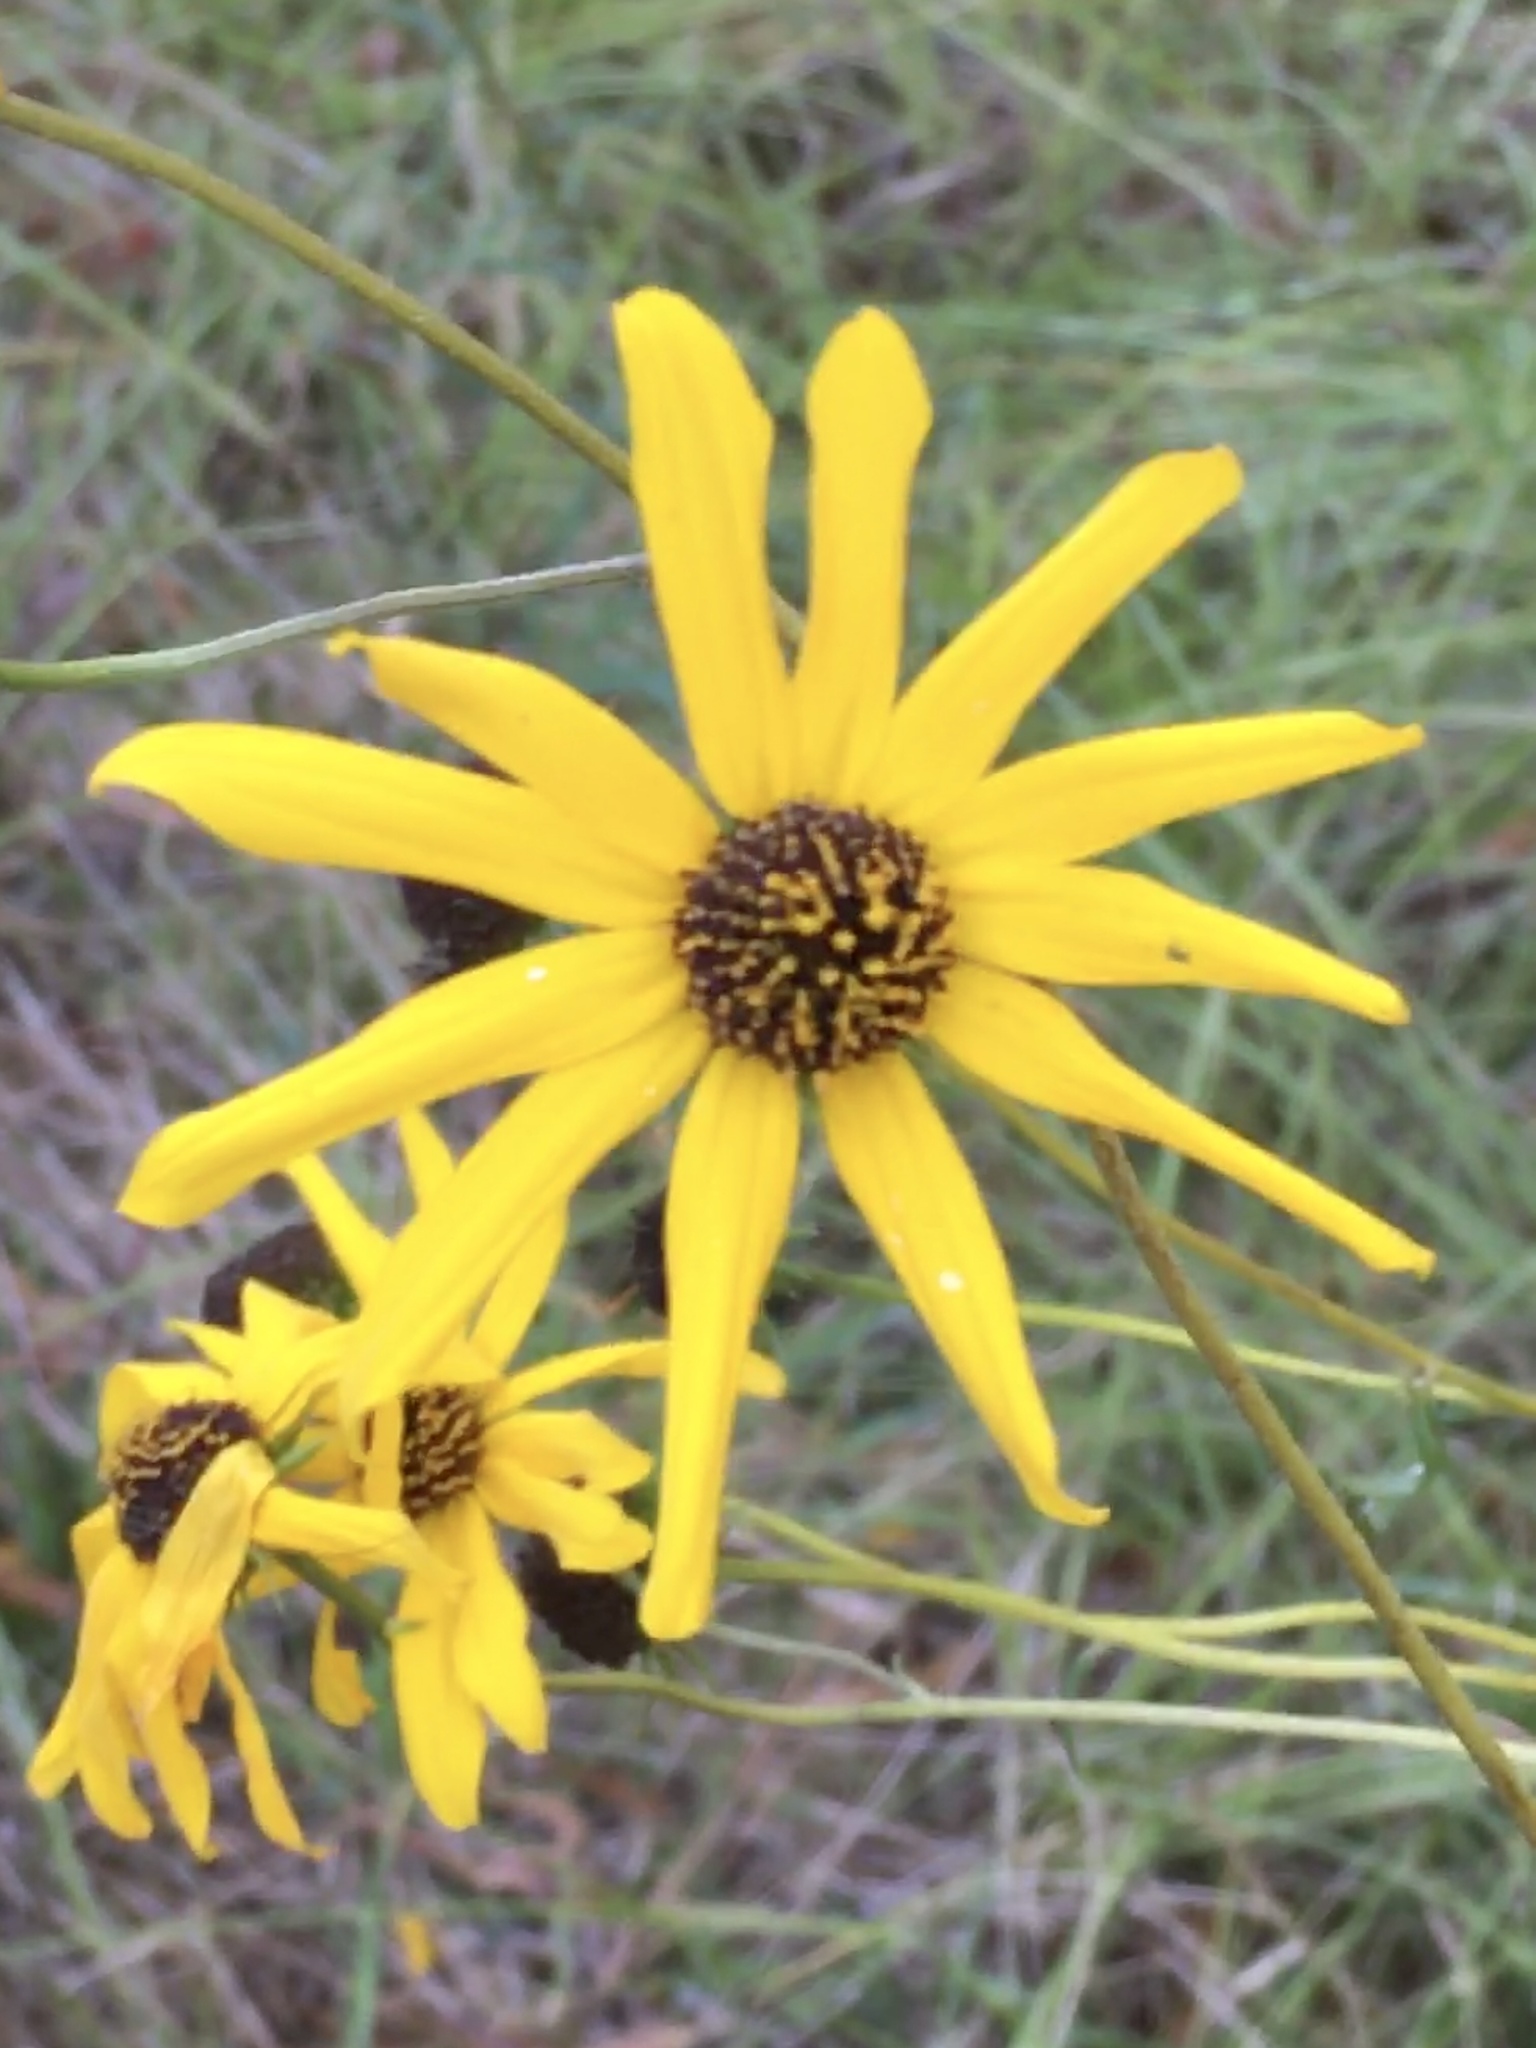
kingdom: Plantae
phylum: Tracheophyta
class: Magnoliopsida
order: Asterales
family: Asteraceae
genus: Helianthus
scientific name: Helianthus angustifolius
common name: Swamp sunflower
